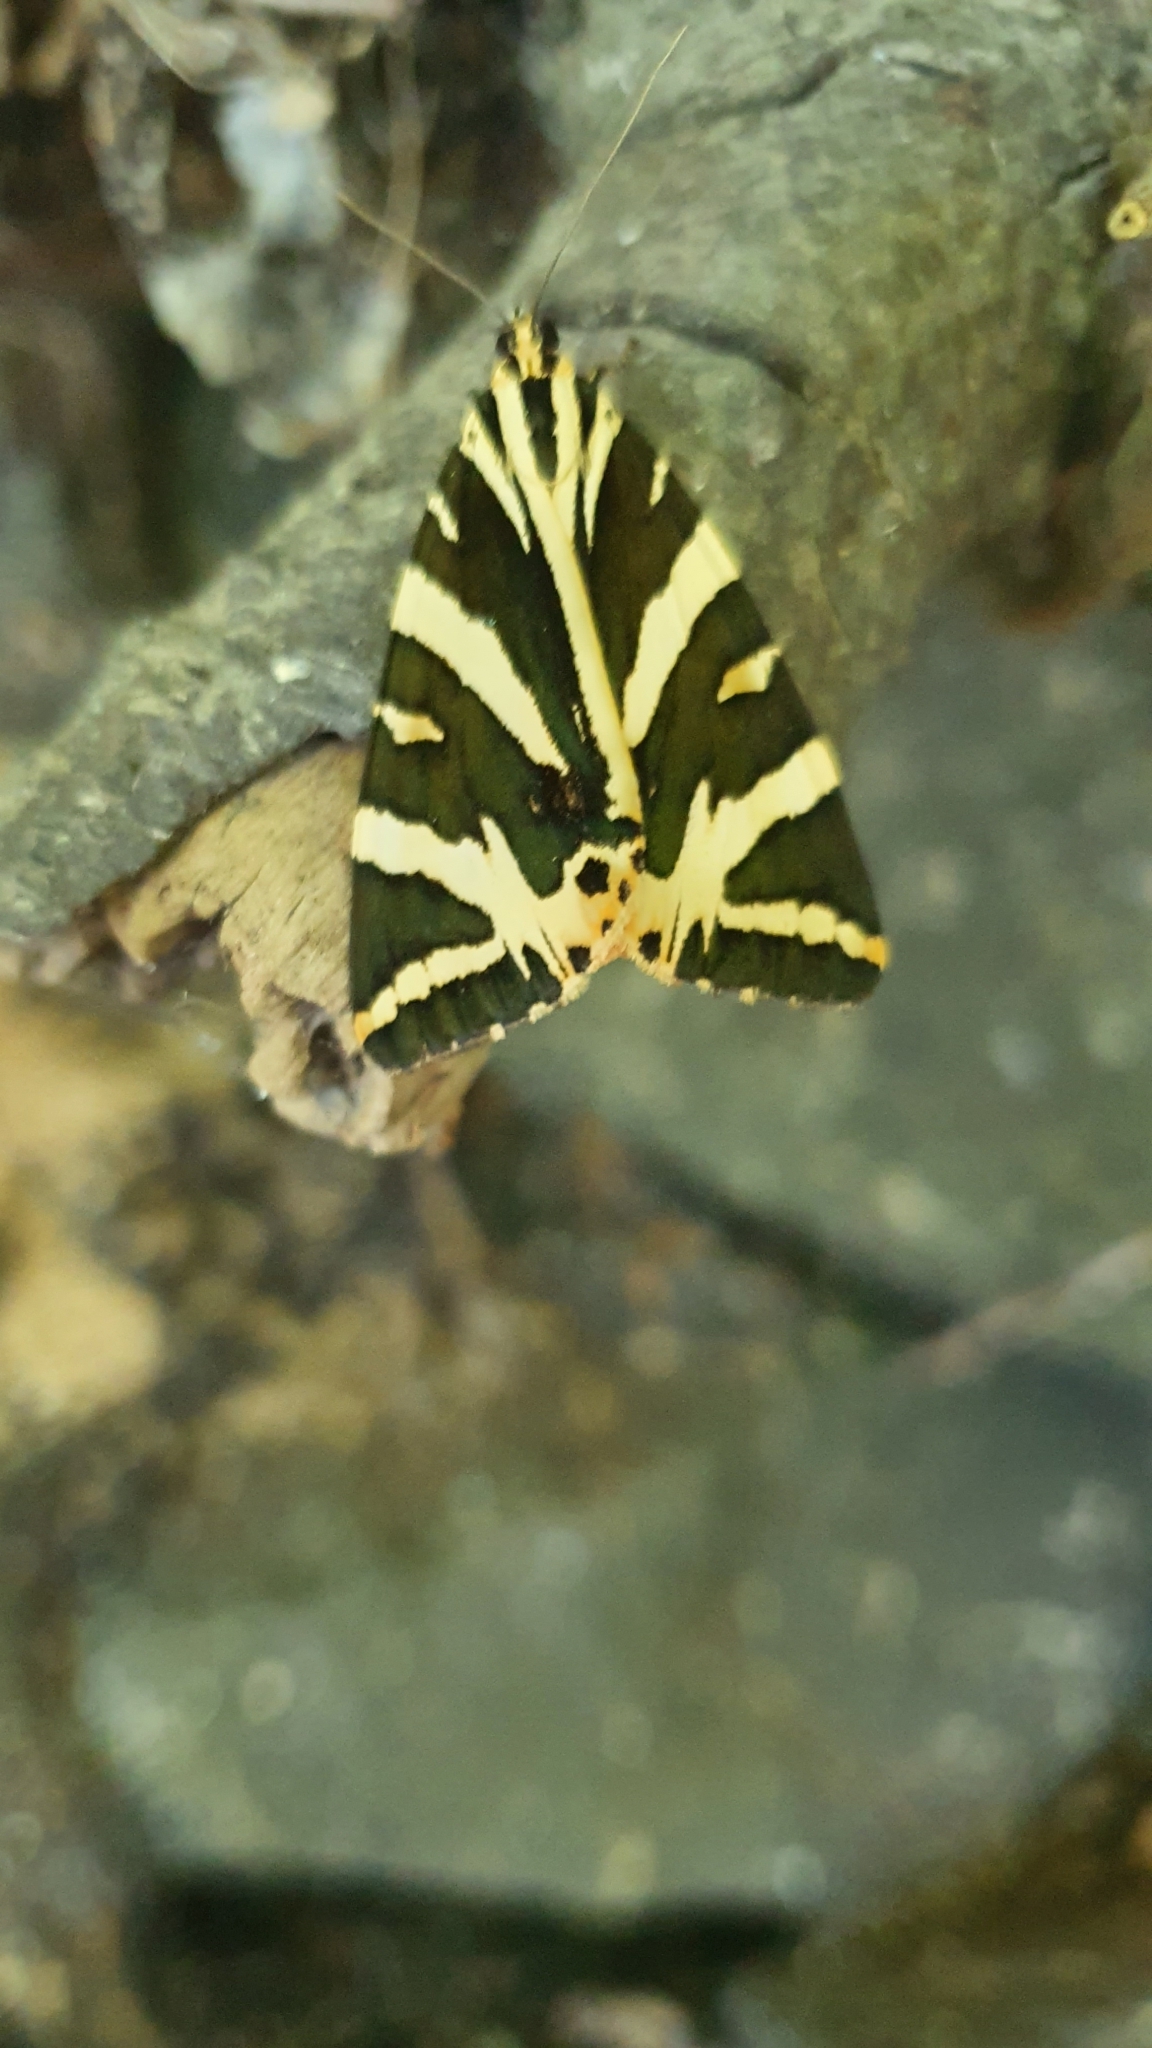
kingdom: Animalia
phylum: Arthropoda
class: Insecta
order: Lepidoptera
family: Erebidae
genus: Euplagia
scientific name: Euplagia quadripunctaria
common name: Jersey tiger
